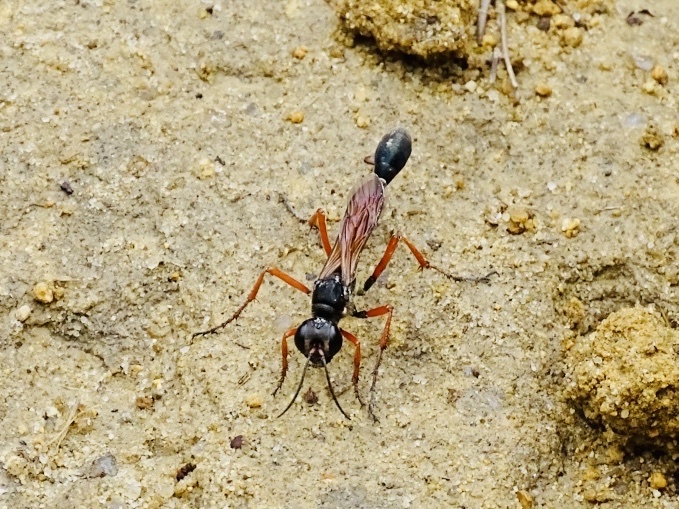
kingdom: Animalia
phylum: Arthropoda
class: Insecta
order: Hymenoptera
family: Sphecidae
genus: Ammophila
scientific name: Ammophila clavus
